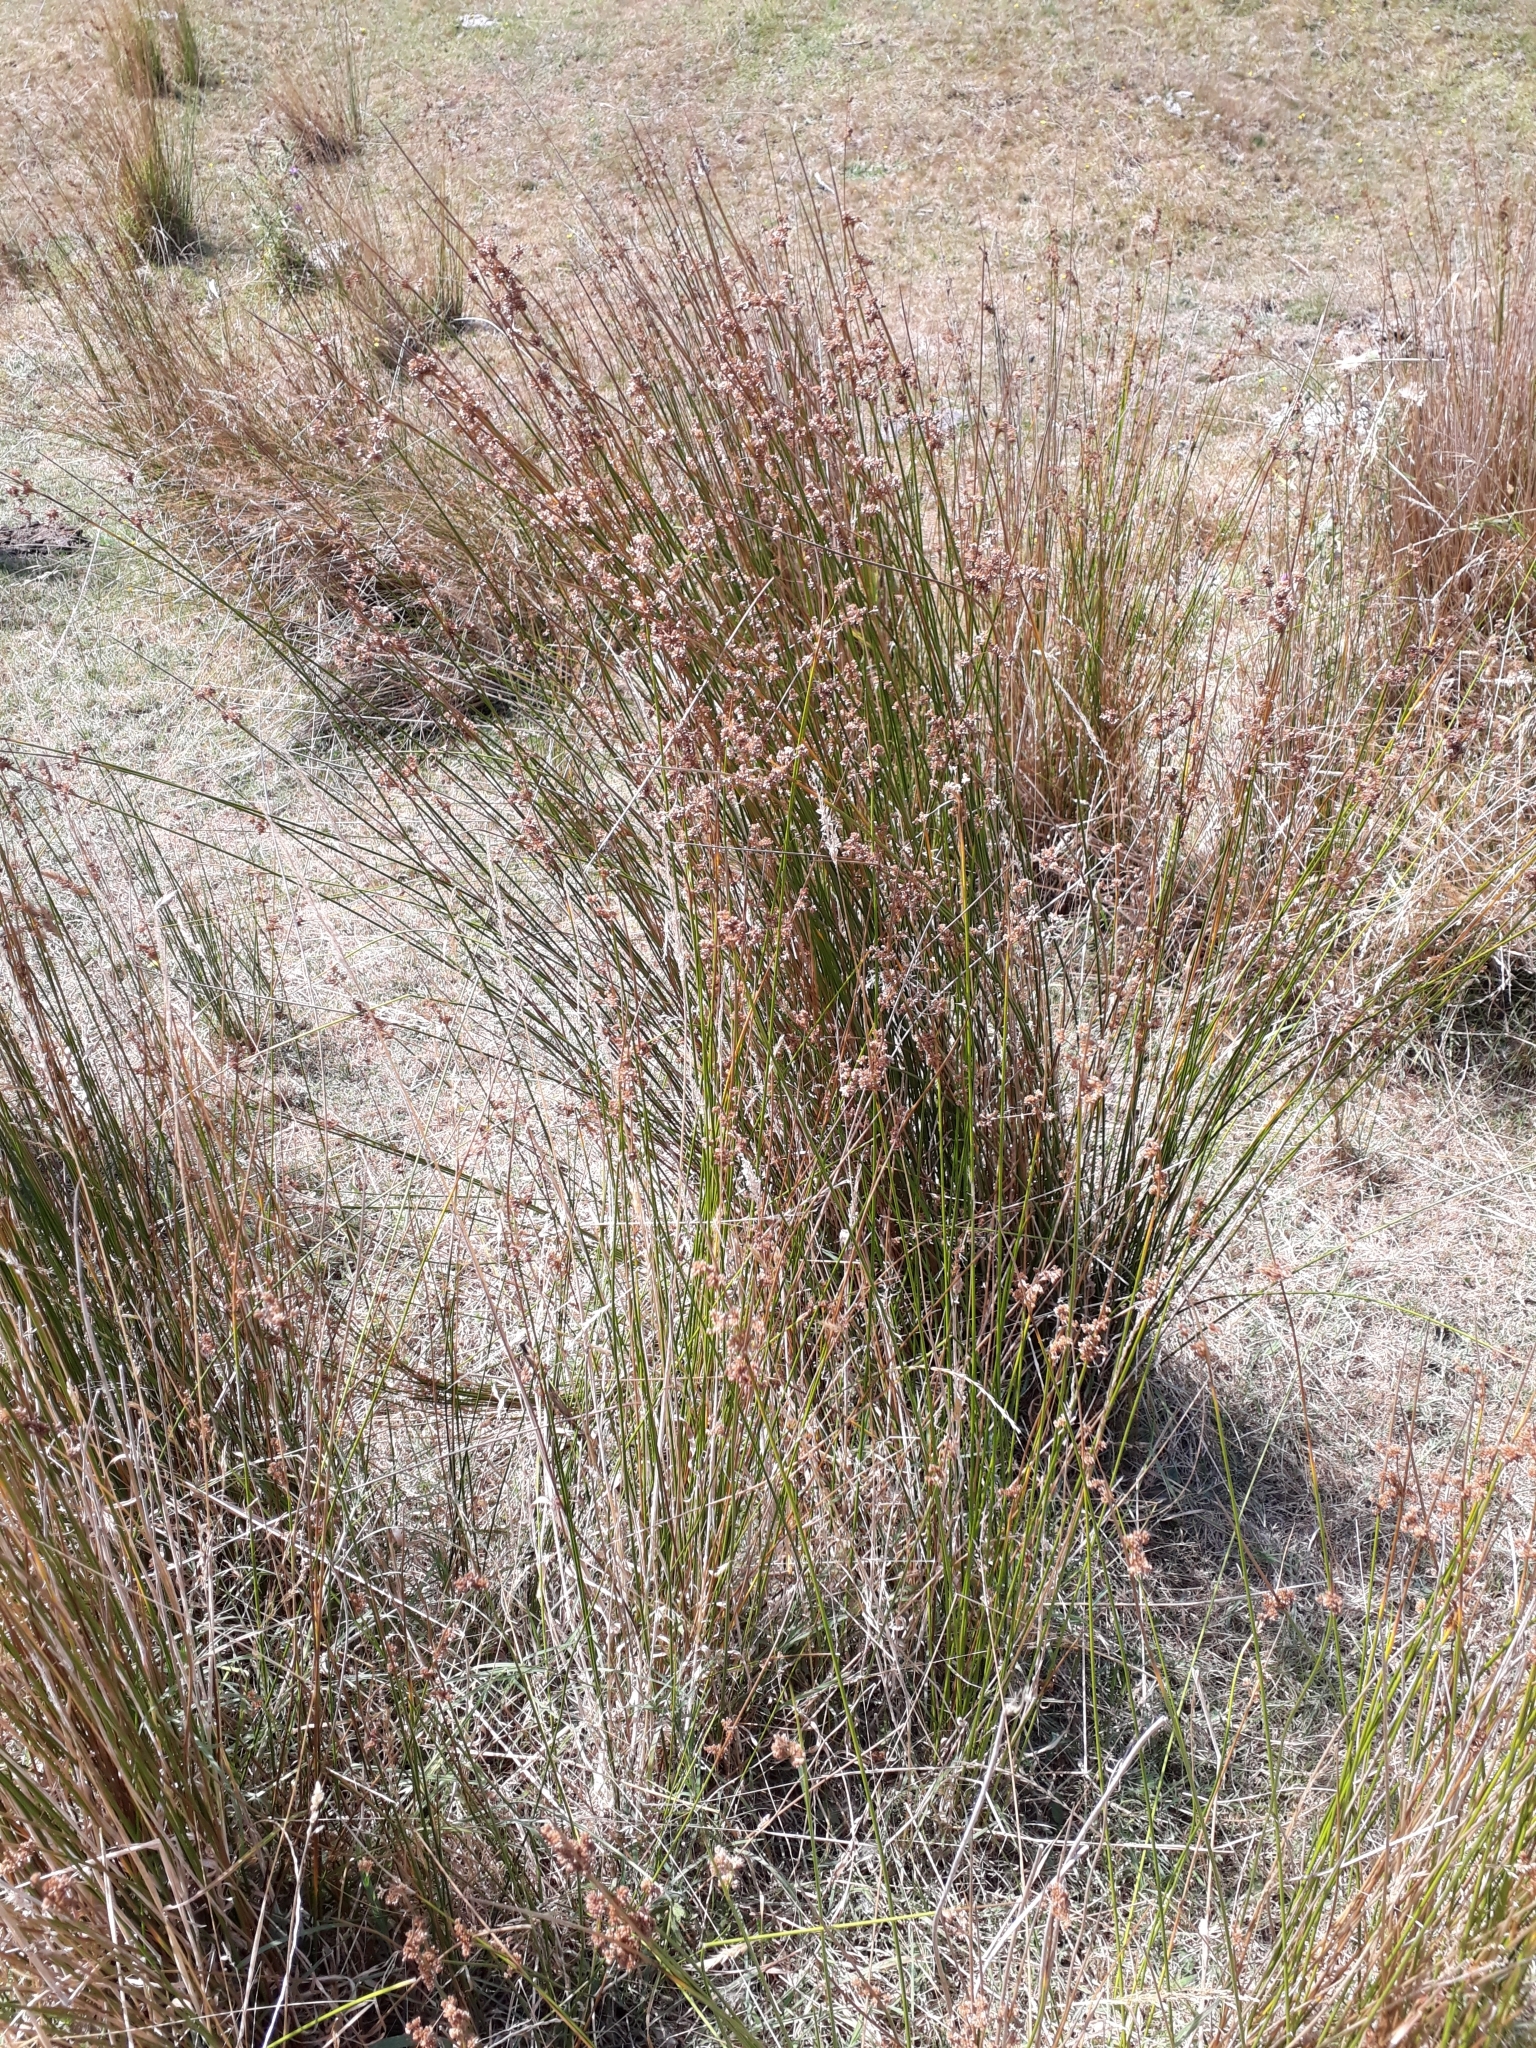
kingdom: Plantae
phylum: Tracheophyta
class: Liliopsida
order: Poales
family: Juncaceae
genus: Juncus
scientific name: Juncus edgariae
